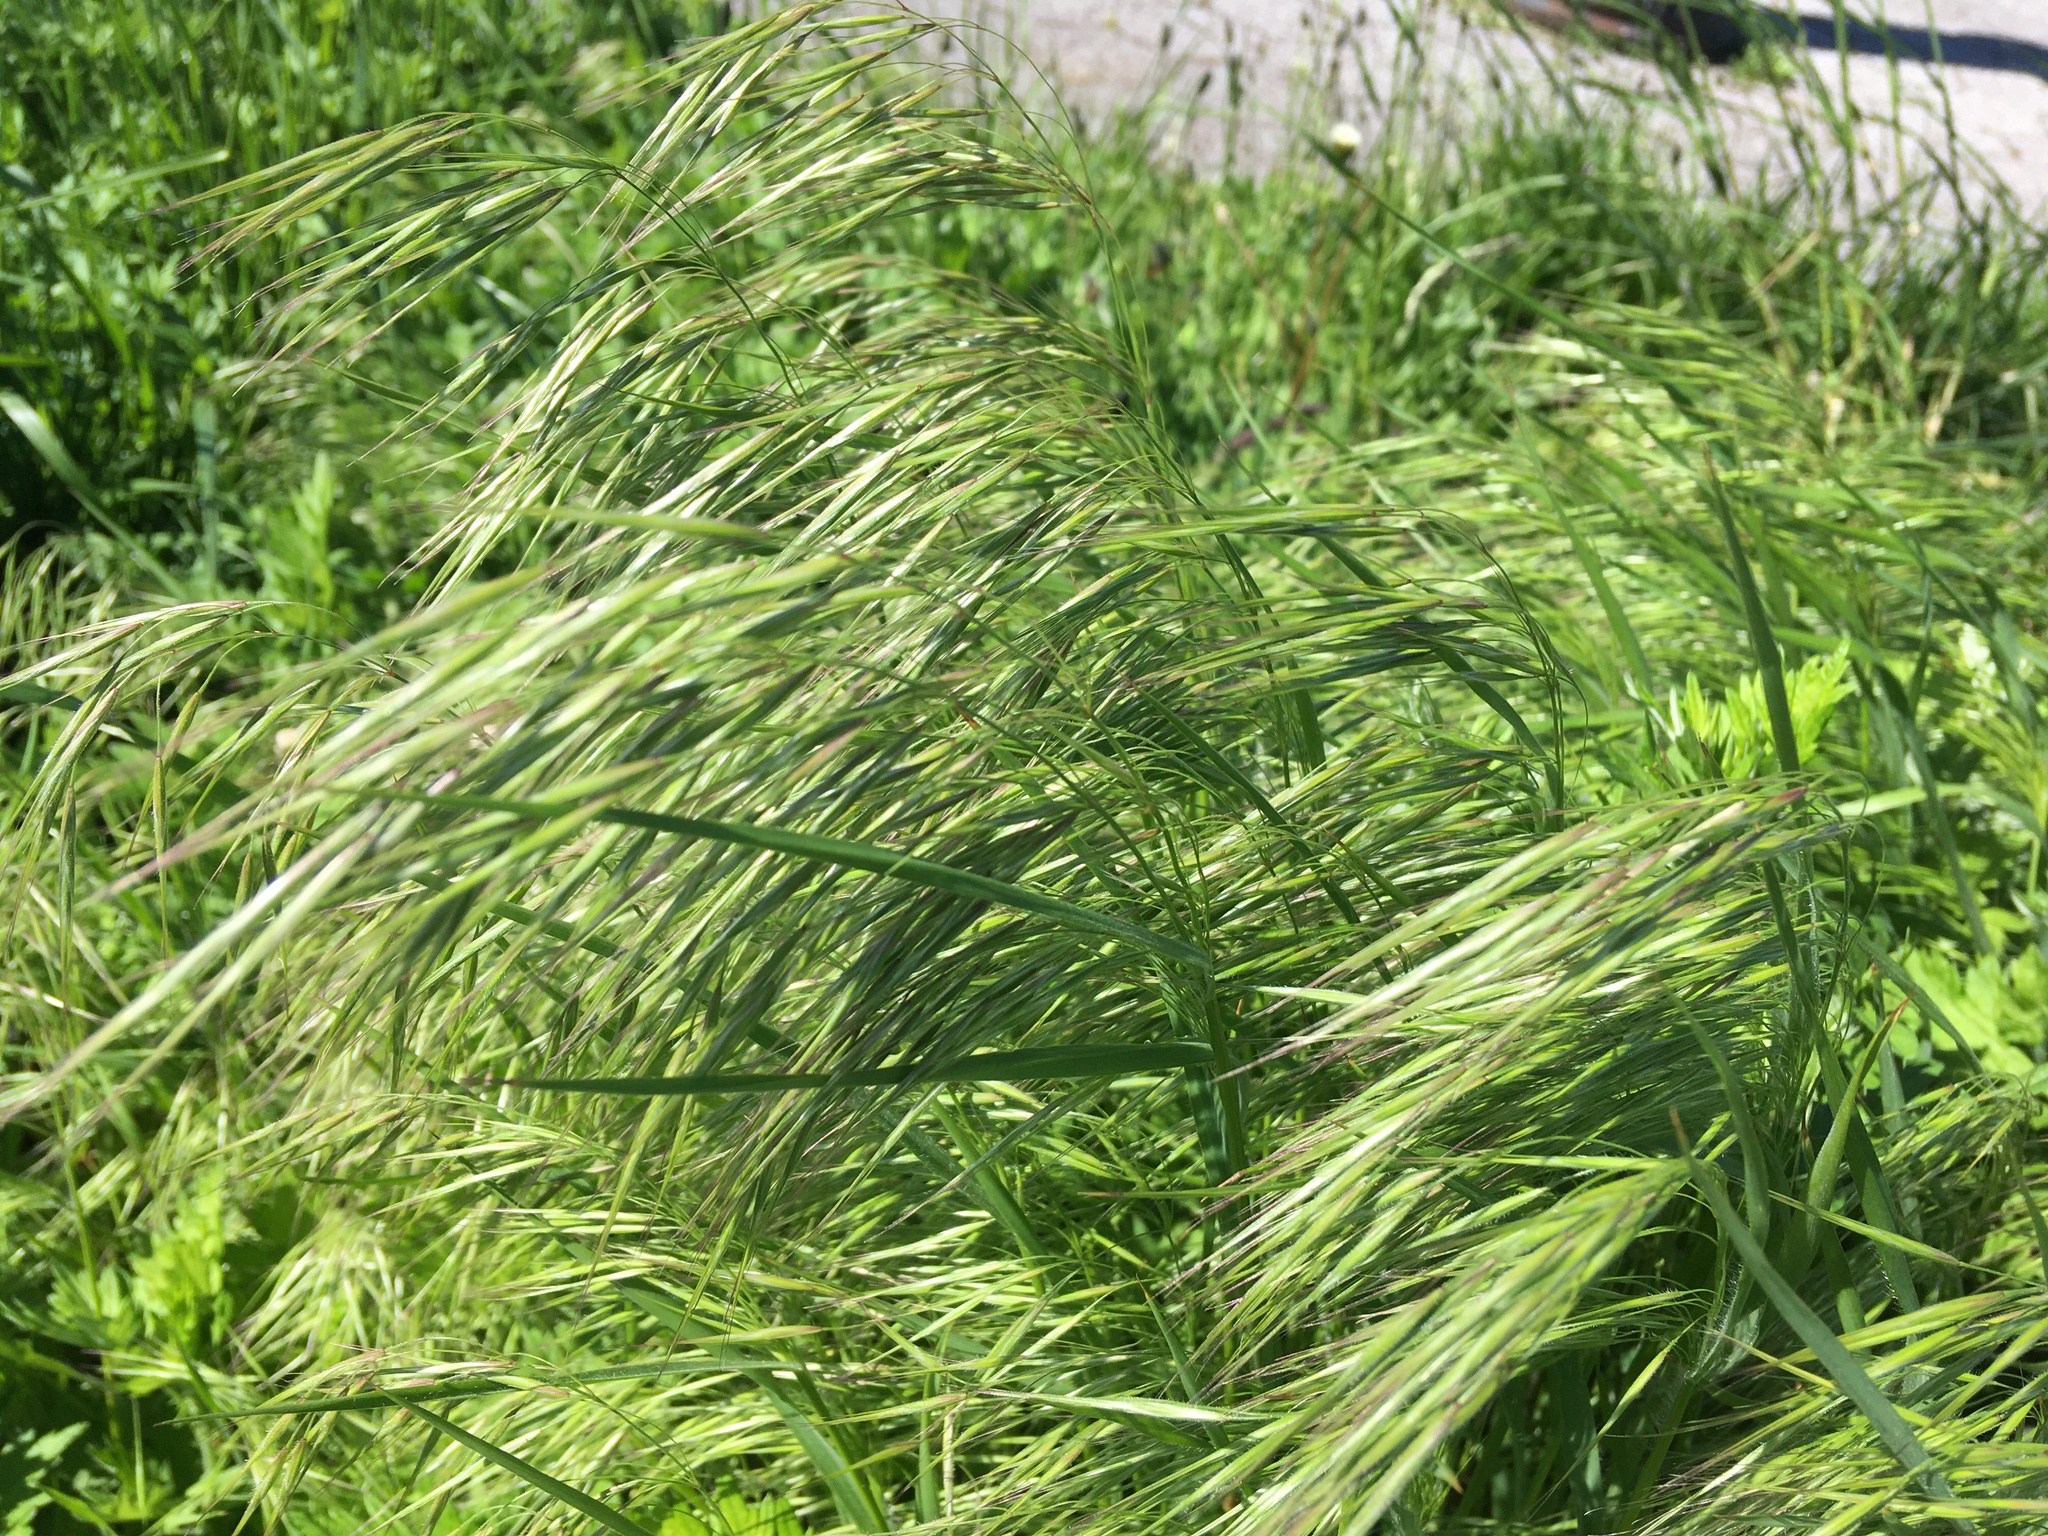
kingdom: Plantae
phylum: Tracheophyta
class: Liliopsida
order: Poales
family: Poaceae
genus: Bromus
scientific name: Bromus tectorum
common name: Cheatgrass
